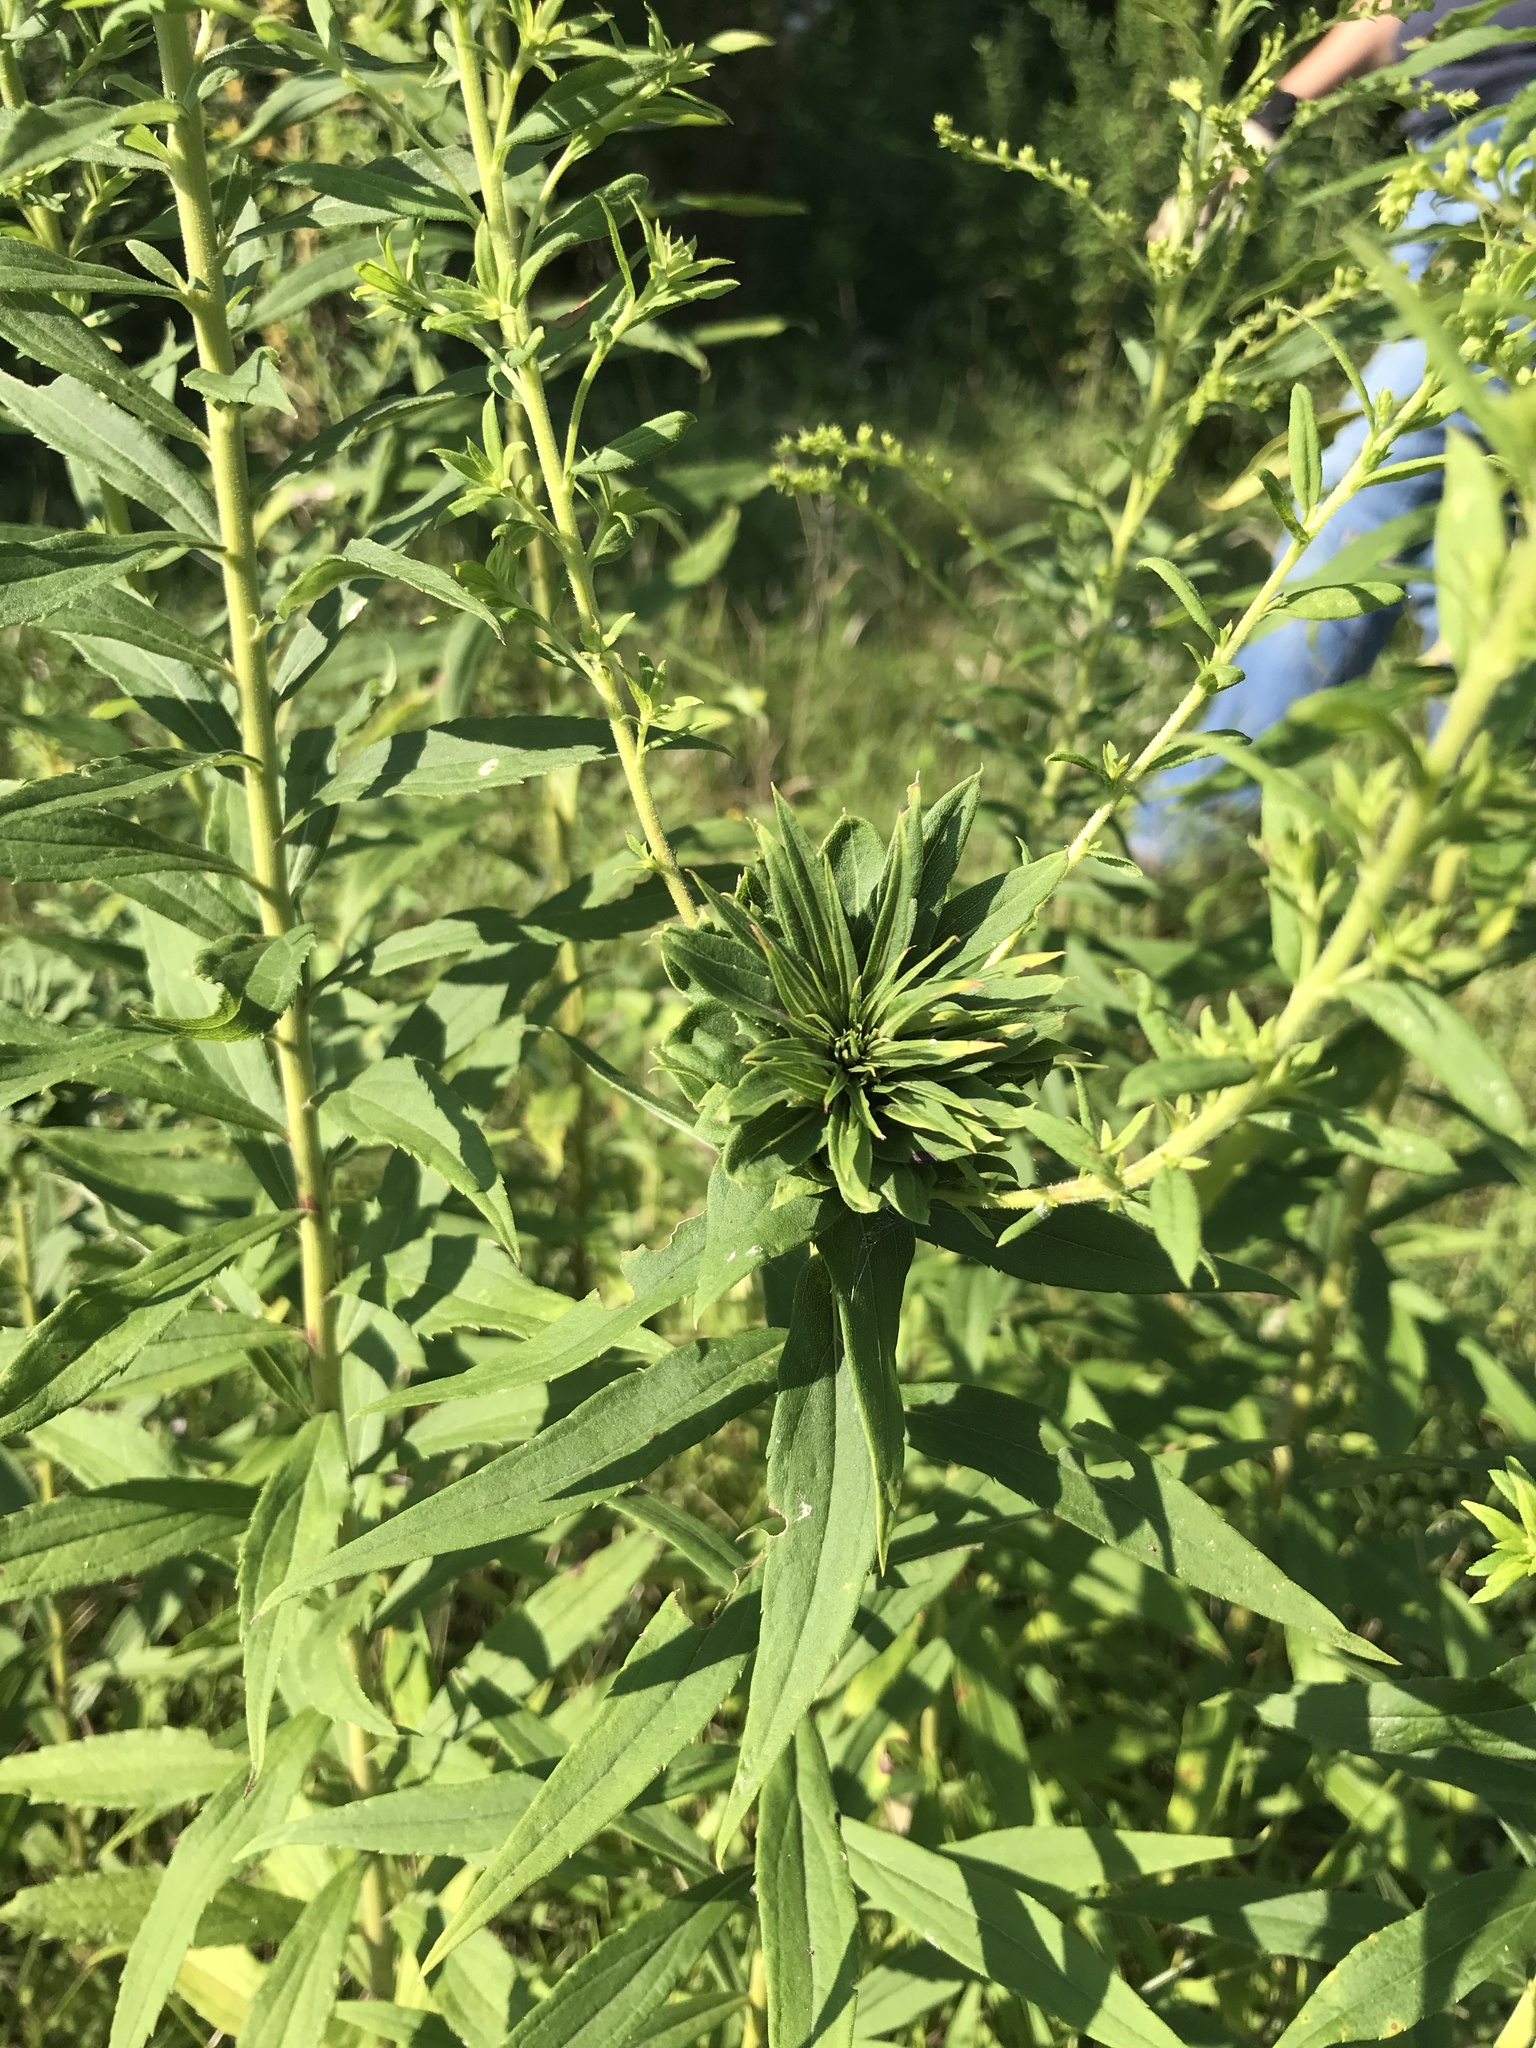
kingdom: Animalia
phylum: Arthropoda
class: Insecta
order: Diptera
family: Cecidomyiidae
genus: Rhopalomyia
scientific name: Rhopalomyia solidaginis
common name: Goldenrod bunch gall midge
